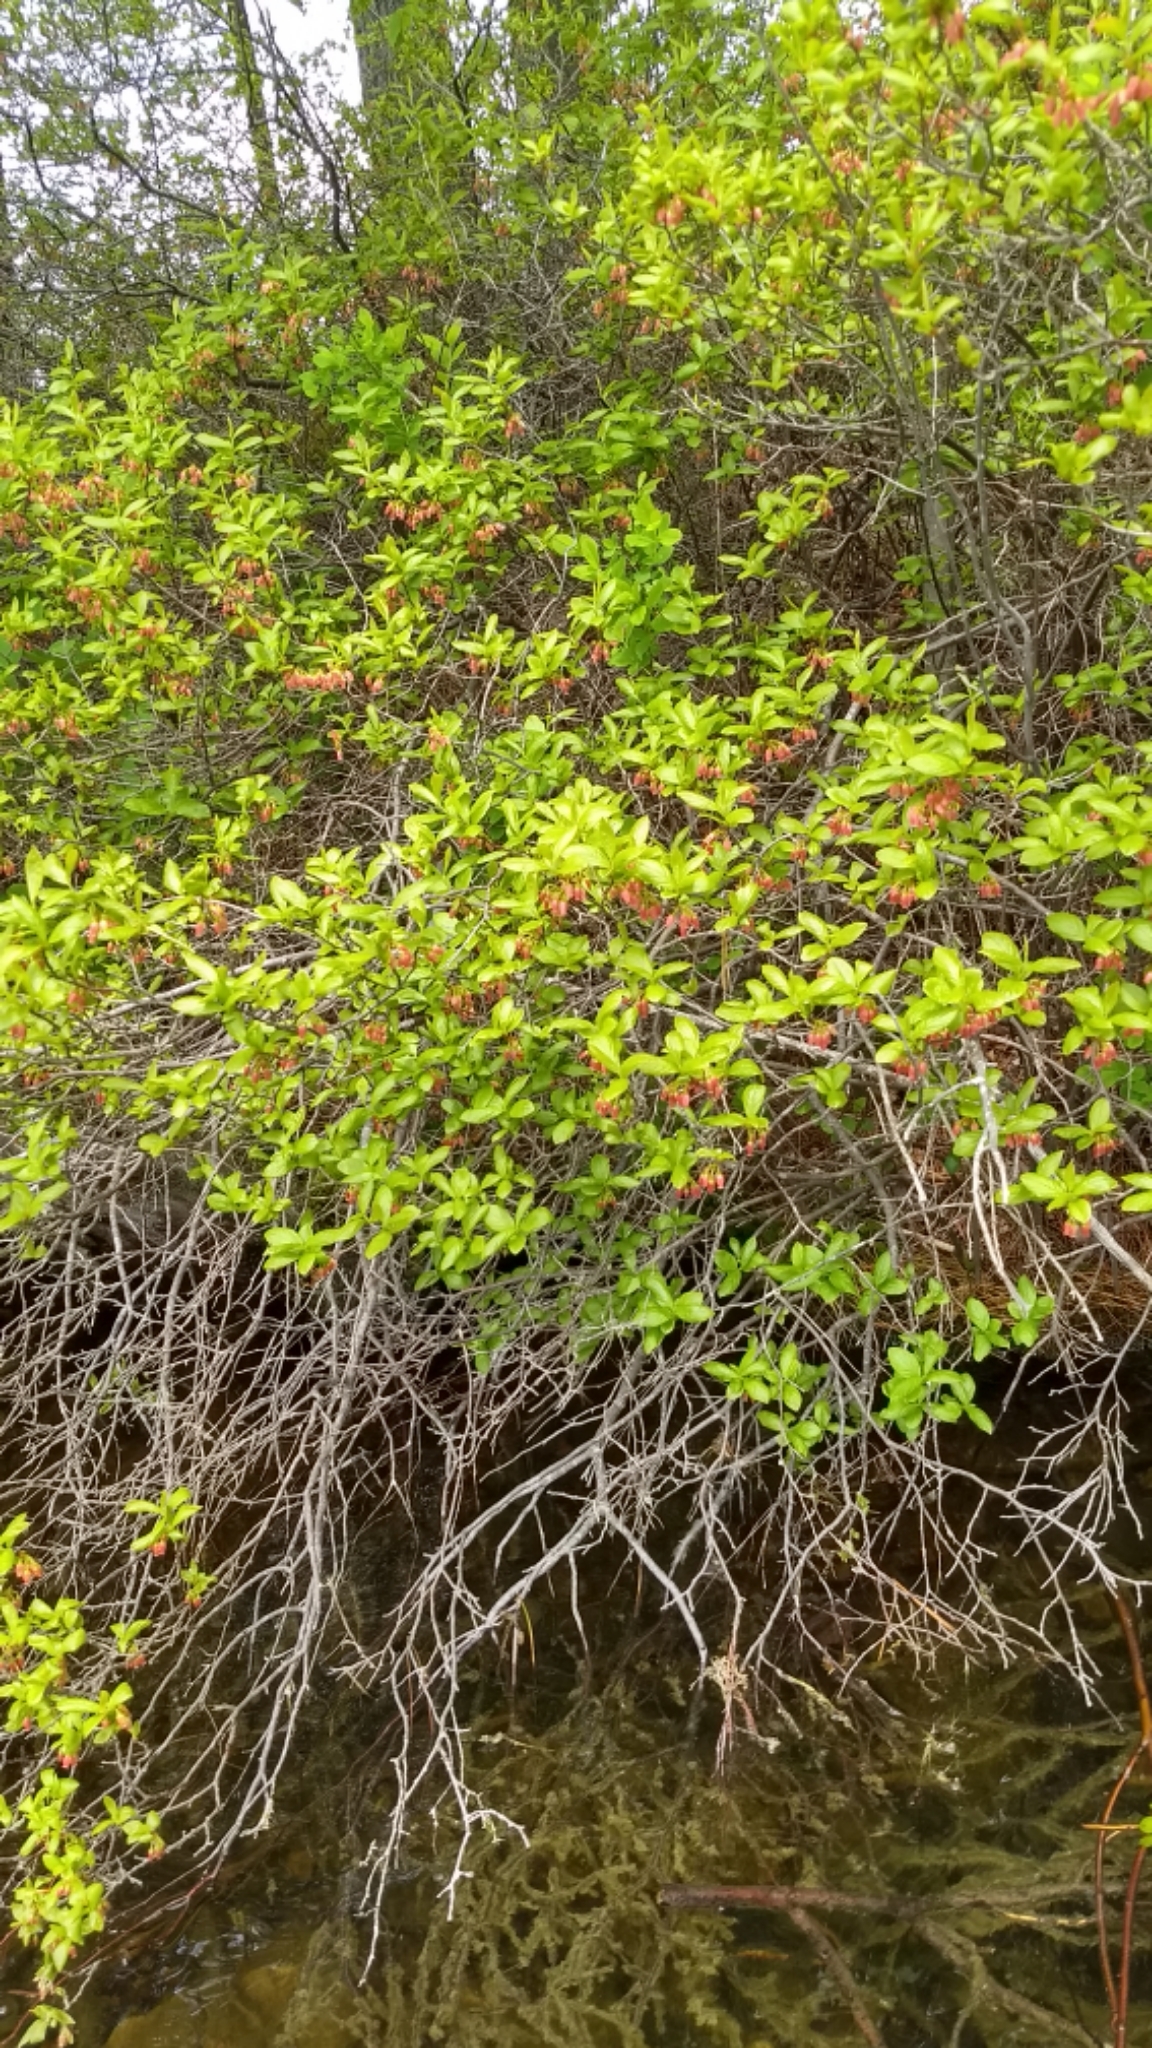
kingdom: Plantae
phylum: Tracheophyta
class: Magnoliopsida
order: Ericales
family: Ericaceae
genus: Gaylussacia
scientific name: Gaylussacia baccata
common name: Black huckleberry
